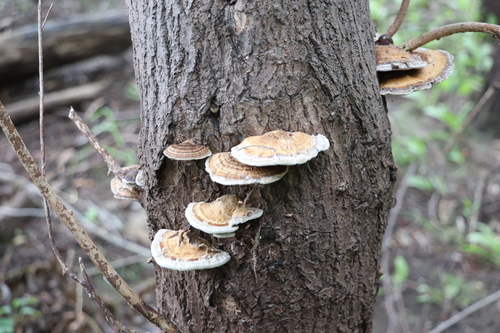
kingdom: Fungi
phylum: Basidiomycota
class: Agaricomycetes
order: Polyporales
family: Polyporaceae
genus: Daedaleopsis
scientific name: Daedaleopsis confragosa
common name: Blushing bracket
